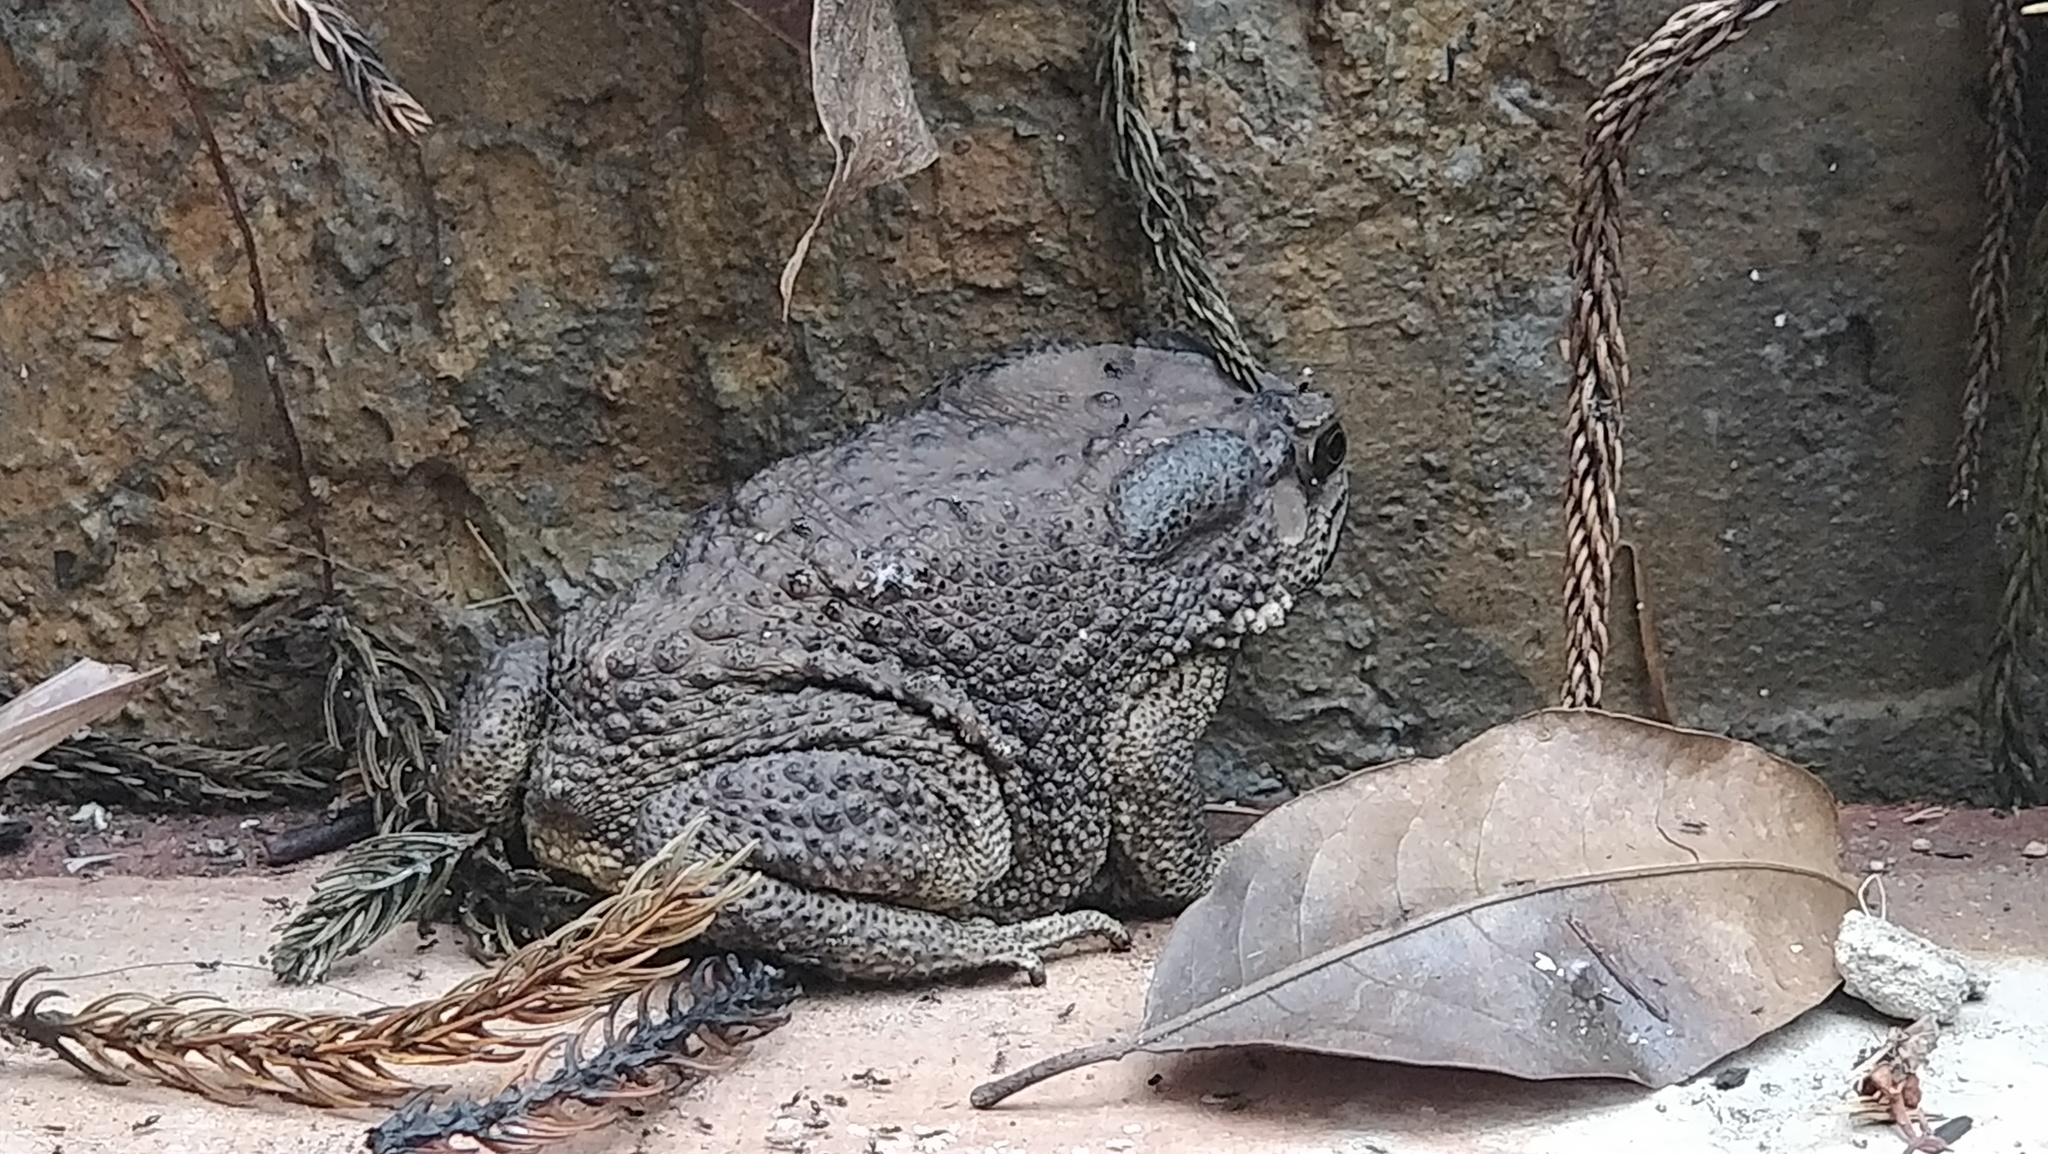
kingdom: Animalia
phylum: Chordata
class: Amphibia
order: Anura
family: Bufonidae
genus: Duttaphrynus
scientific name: Duttaphrynus melanostictus
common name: Common sunda toad
